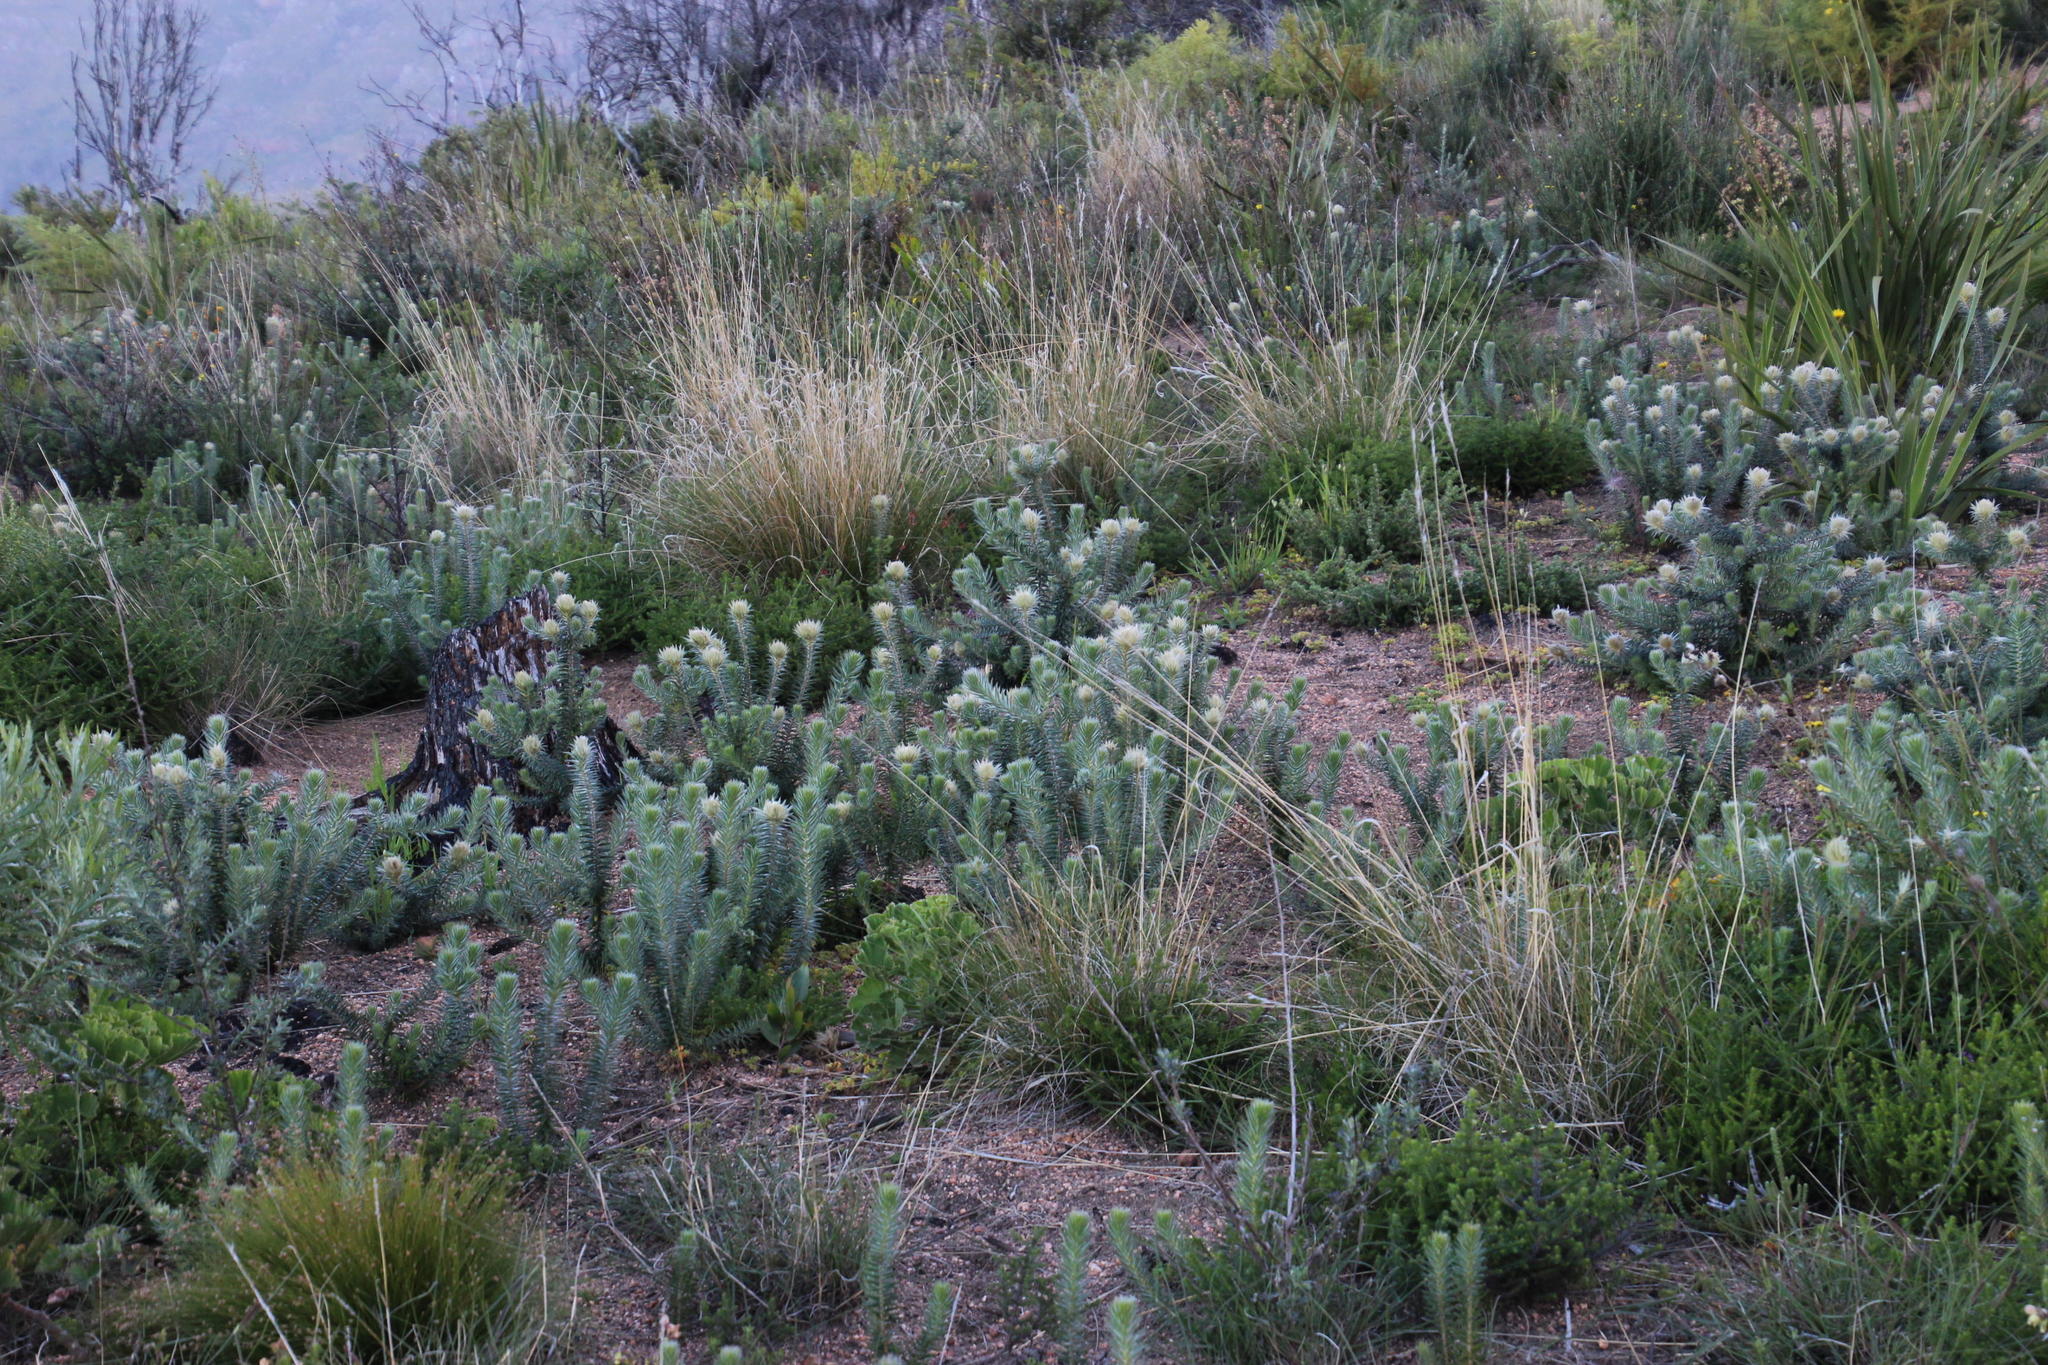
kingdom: Plantae
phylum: Tracheophyta
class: Magnoliopsida
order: Rosales
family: Rhamnaceae
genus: Phylica
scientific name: Phylica plumosa
